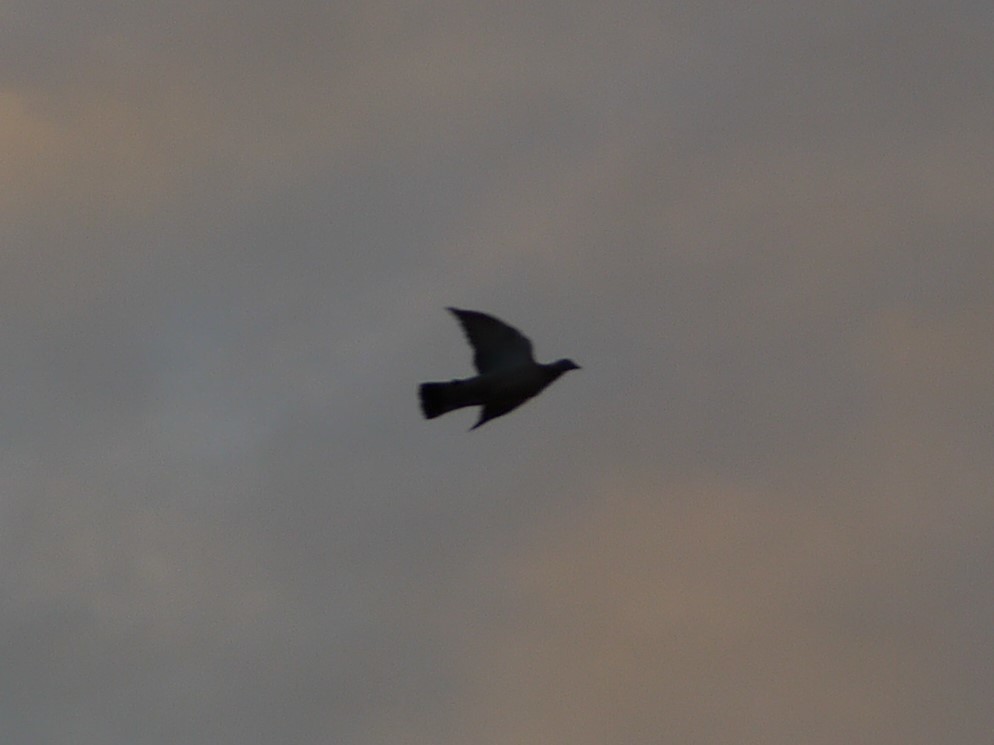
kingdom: Animalia
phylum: Chordata
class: Aves
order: Columbiformes
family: Columbidae
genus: Columba
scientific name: Columba palumbus
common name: Common wood pigeon
